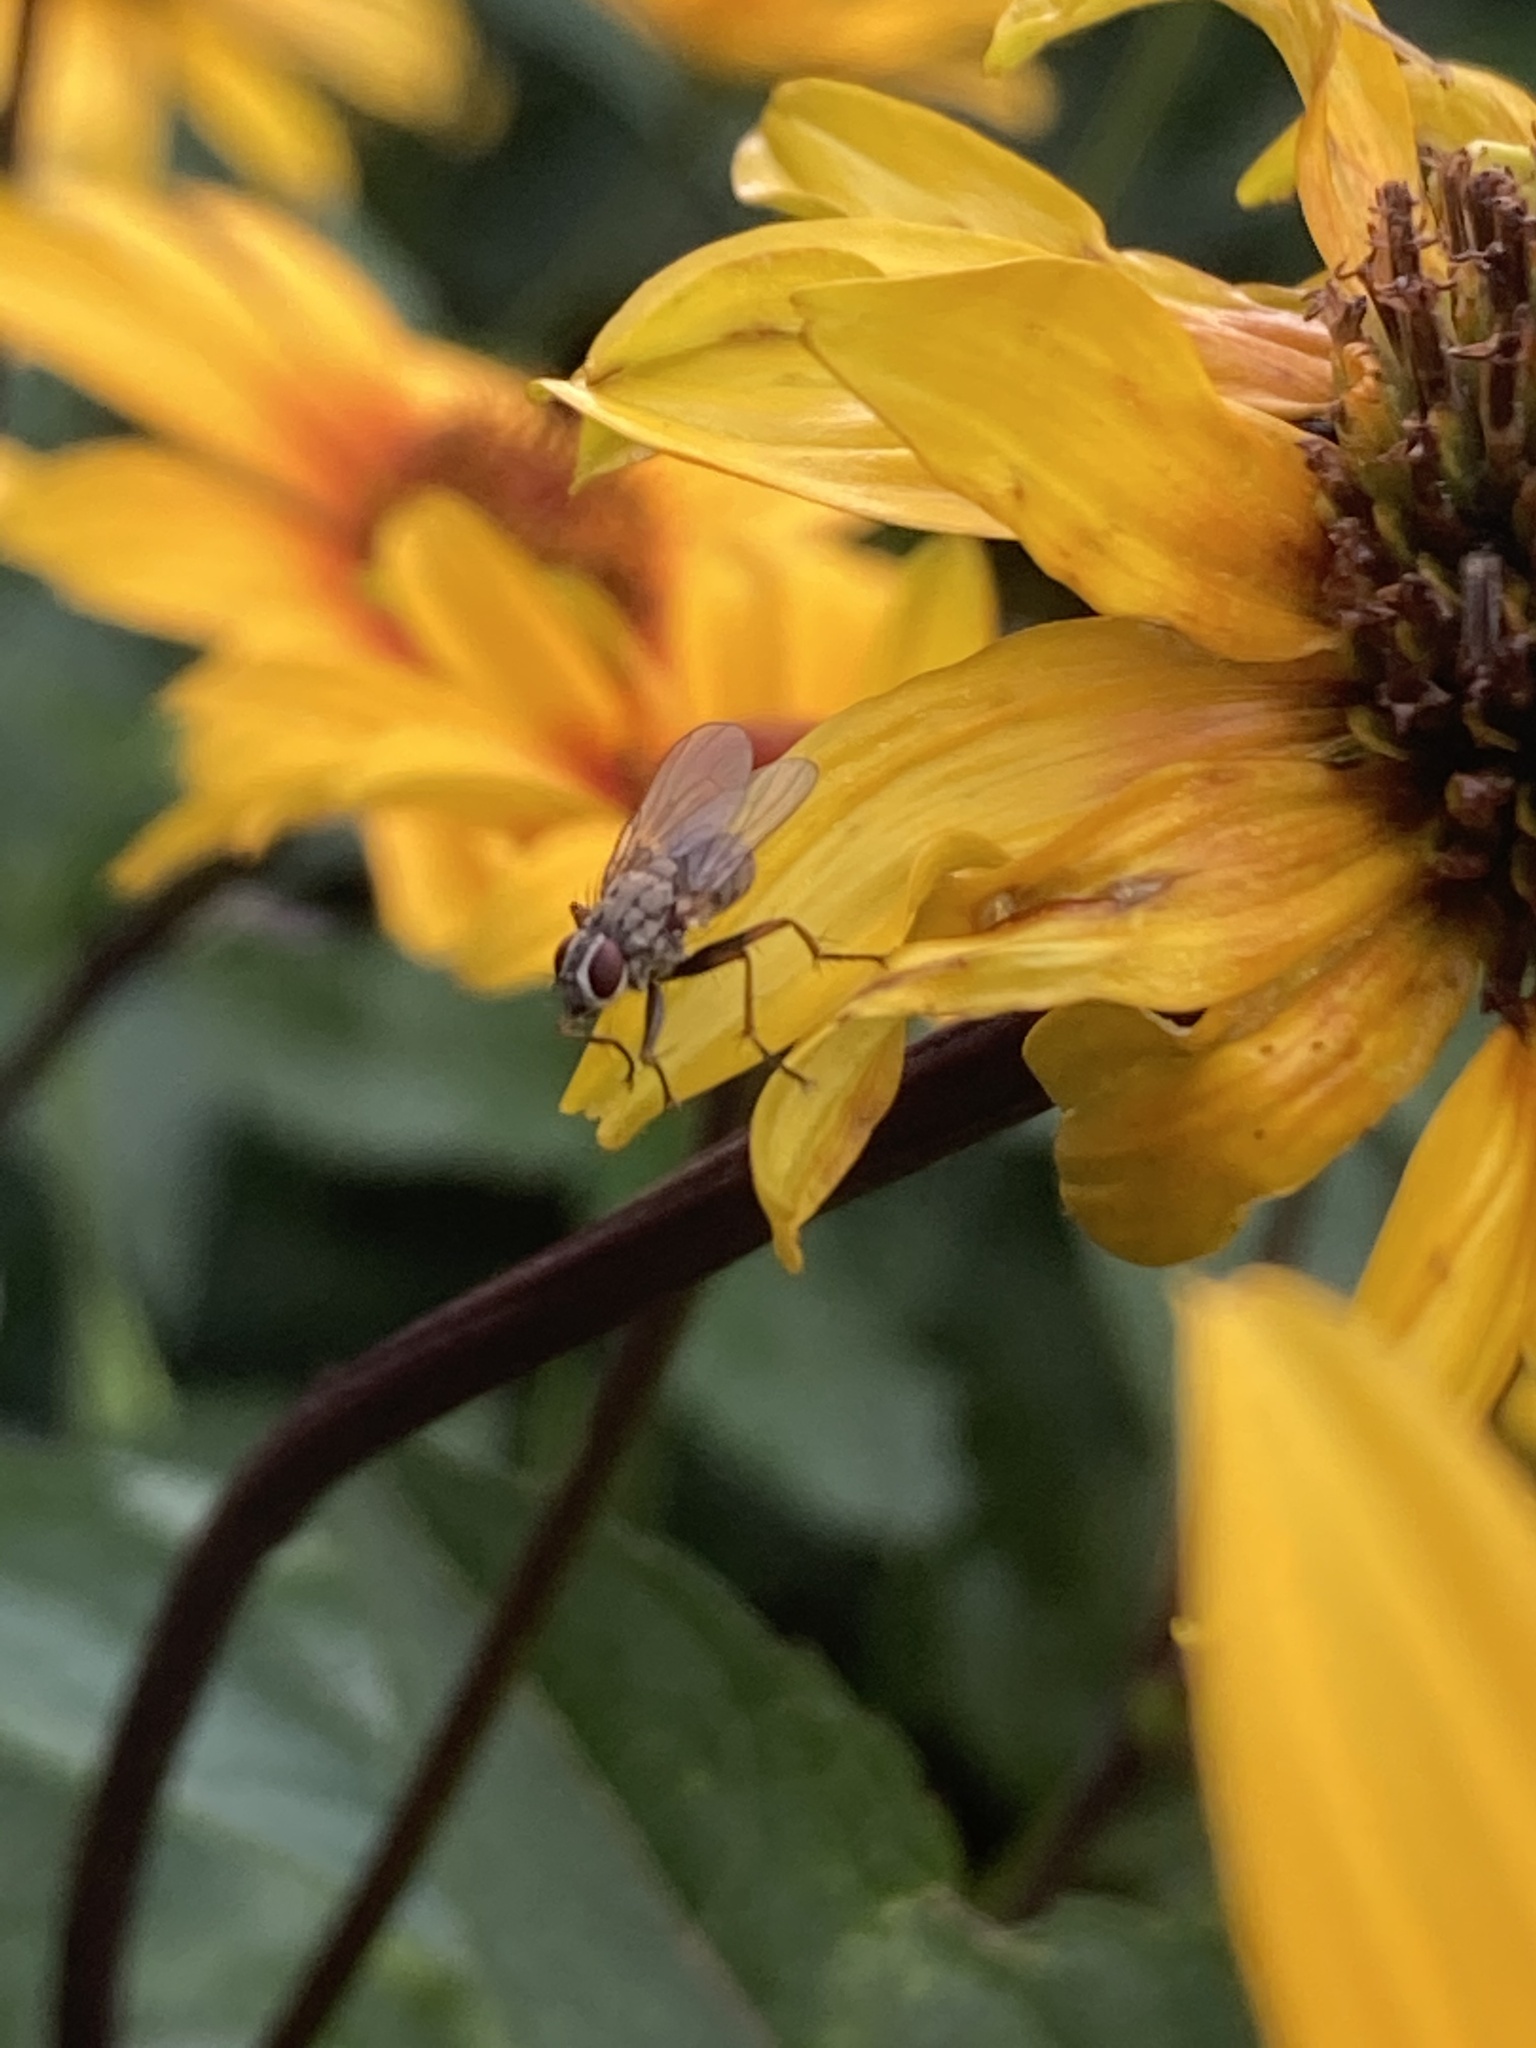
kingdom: Animalia
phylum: Arthropoda
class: Insecta
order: Diptera
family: Muscidae
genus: Coenosia
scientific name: Coenosia tigrina
